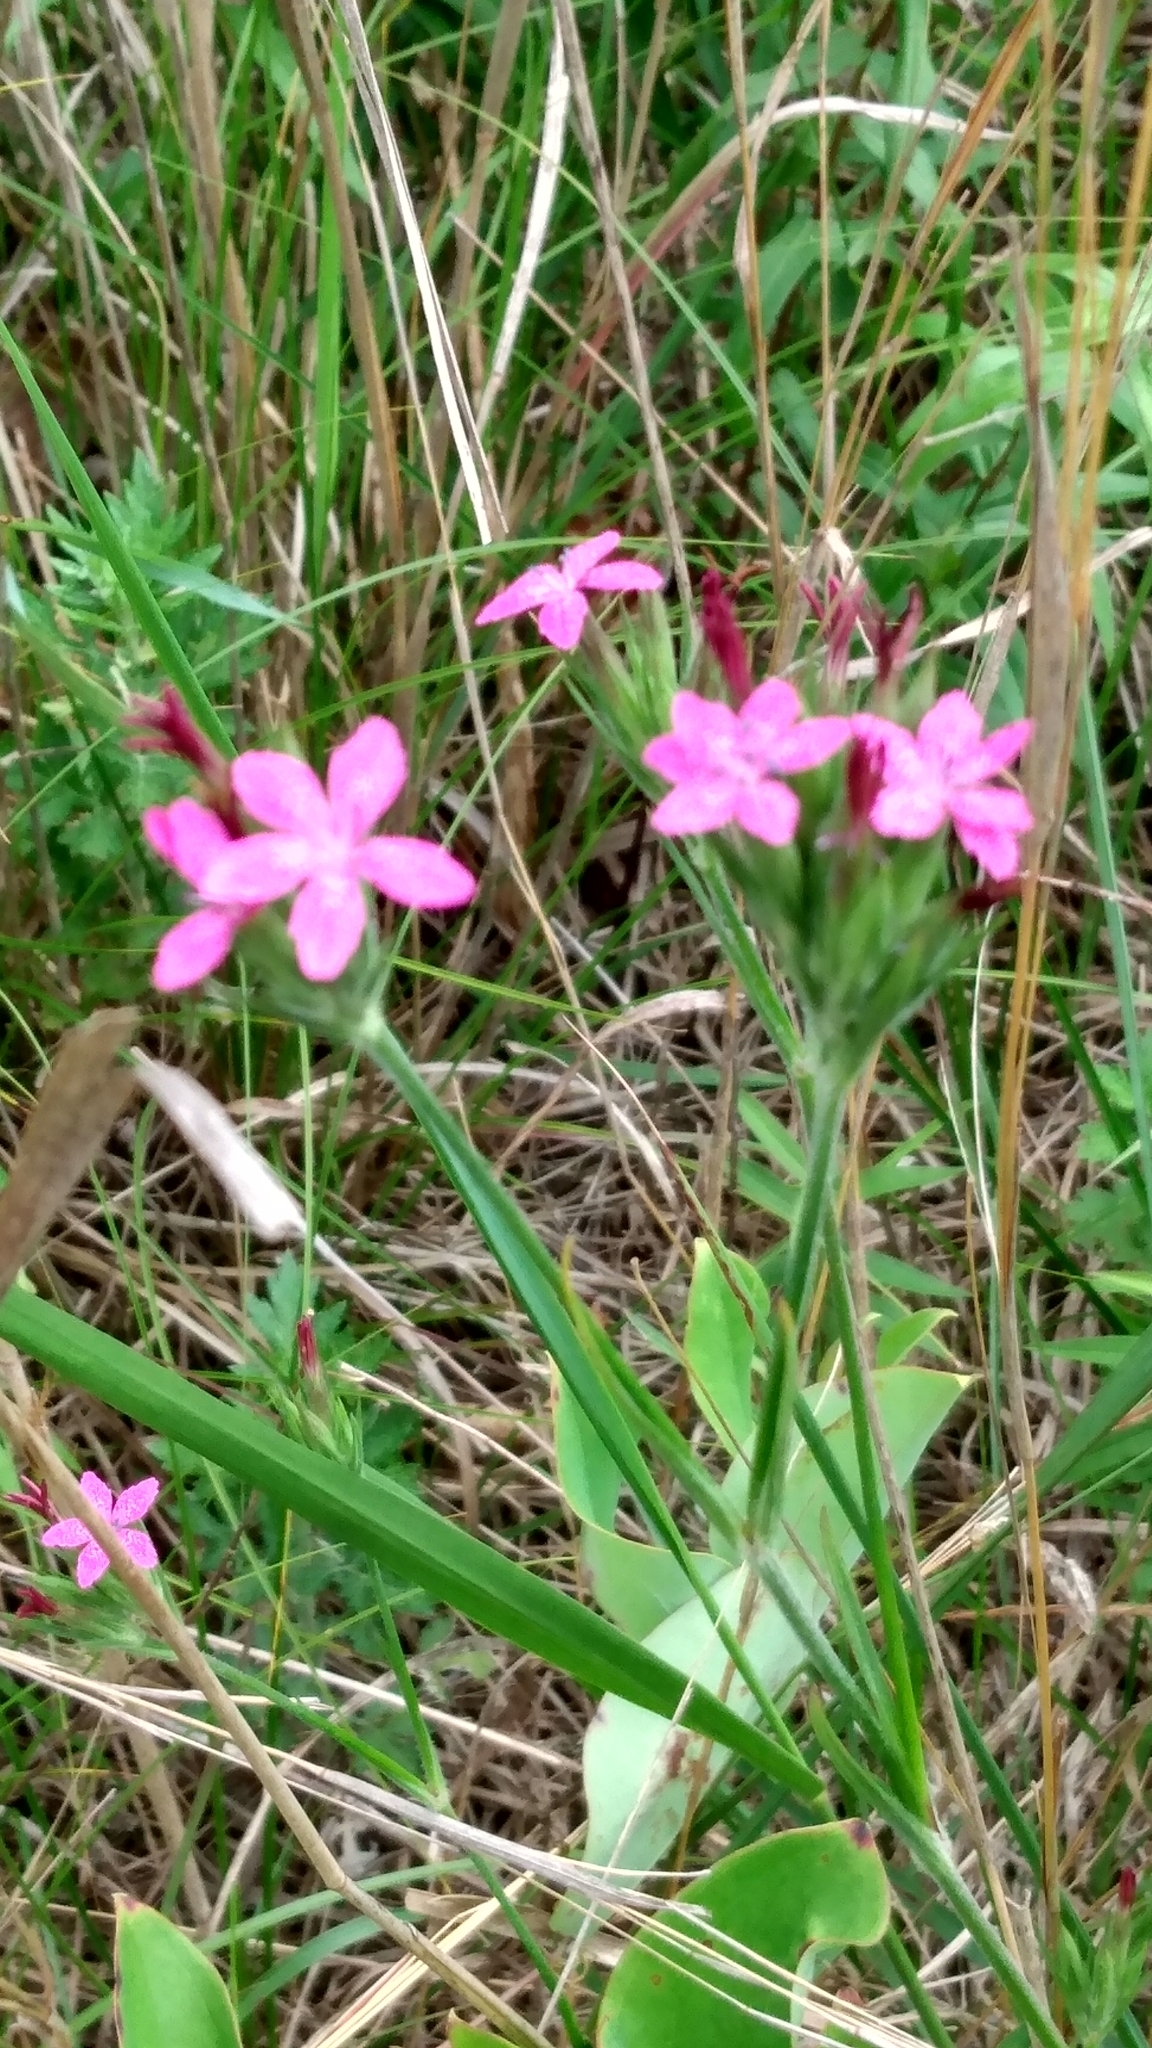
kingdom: Plantae
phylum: Tracheophyta
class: Magnoliopsida
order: Caryophyllales
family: Caryophyllaceae
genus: Dianthus
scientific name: Dianthus armeria
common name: Deptford pink
